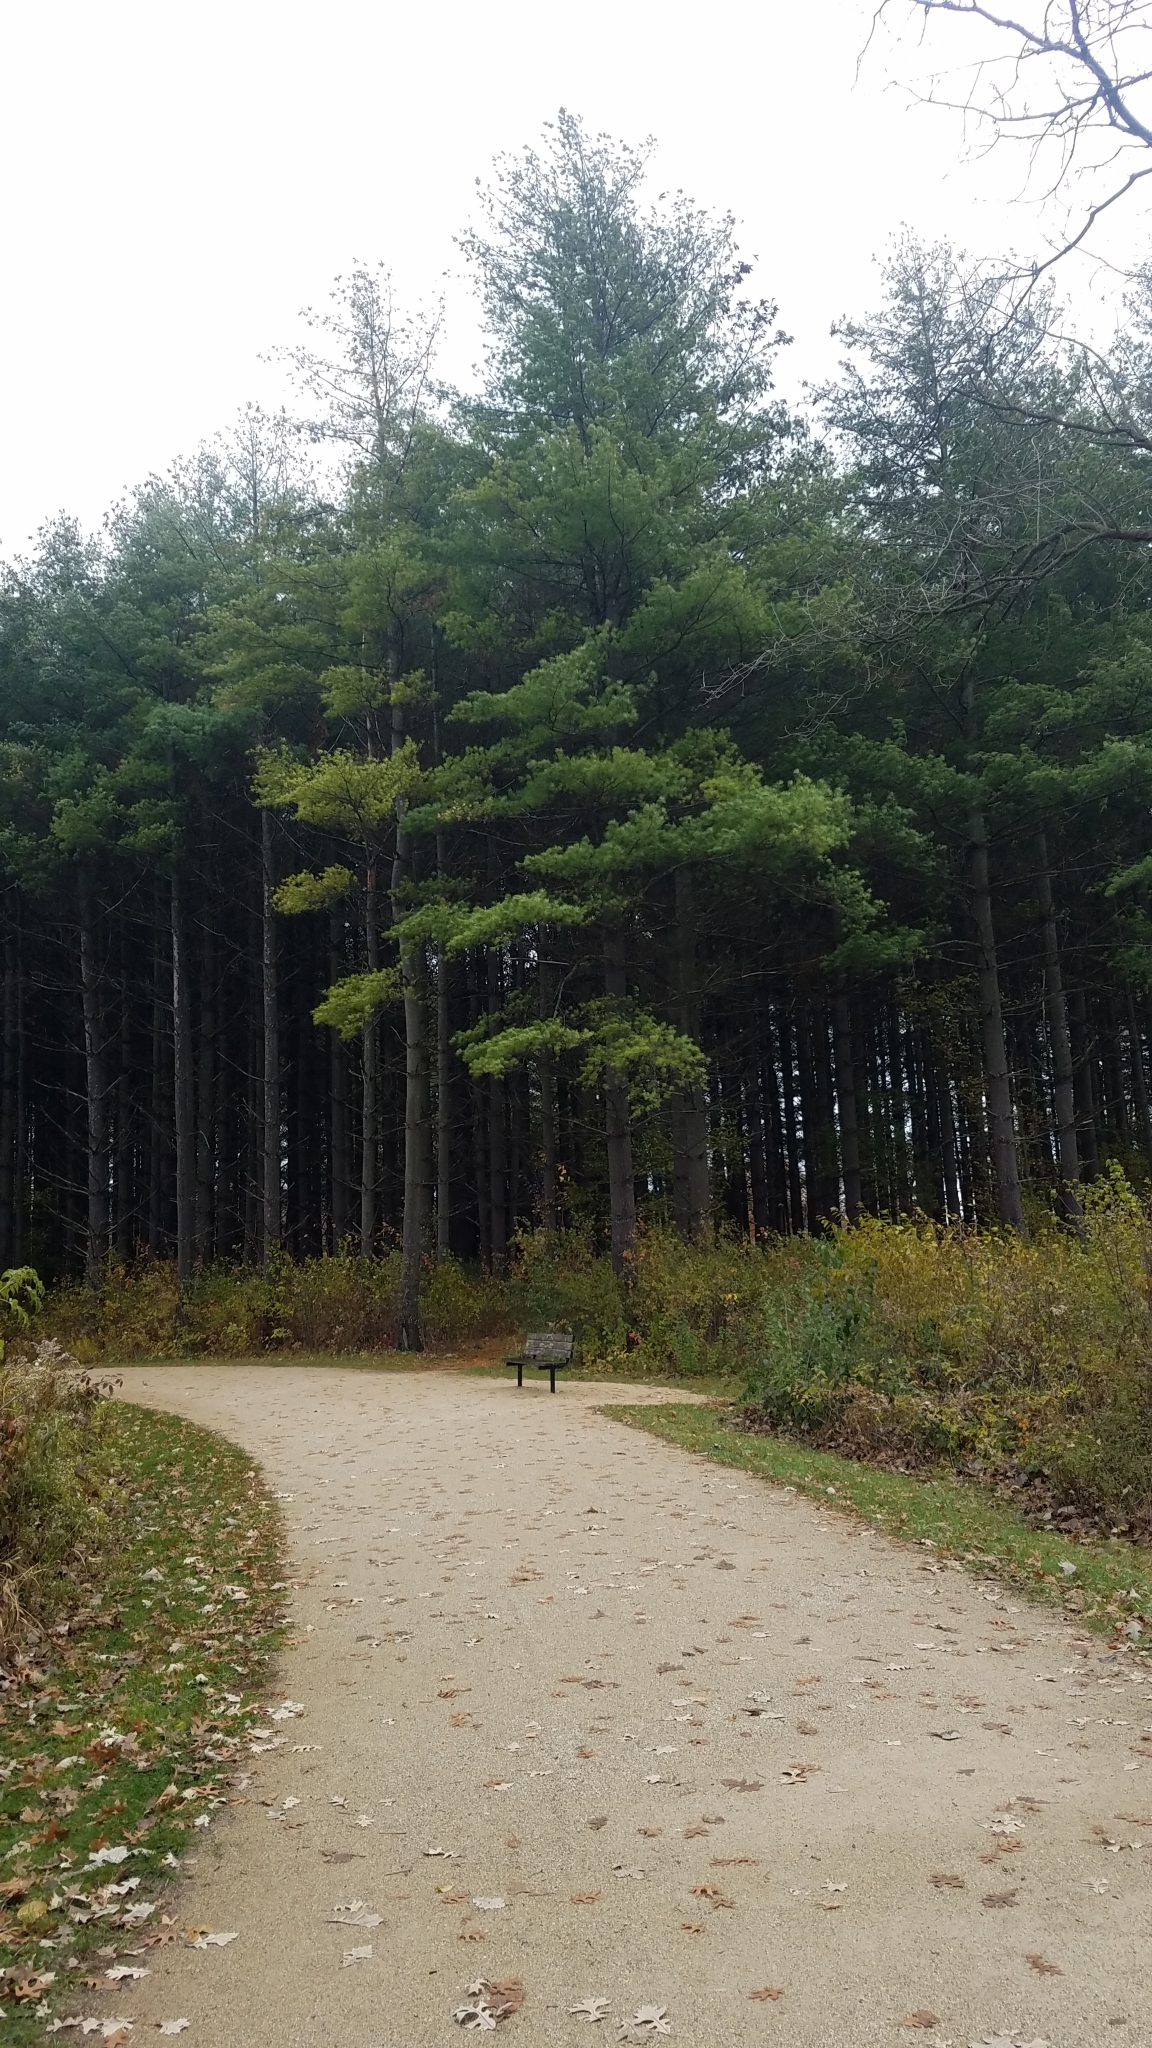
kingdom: Plantae
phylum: Tracheophyta
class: Pinopsida
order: Pinales
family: Pinaceae
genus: Pinus
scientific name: Pinus strobus
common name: Weymouth pine
